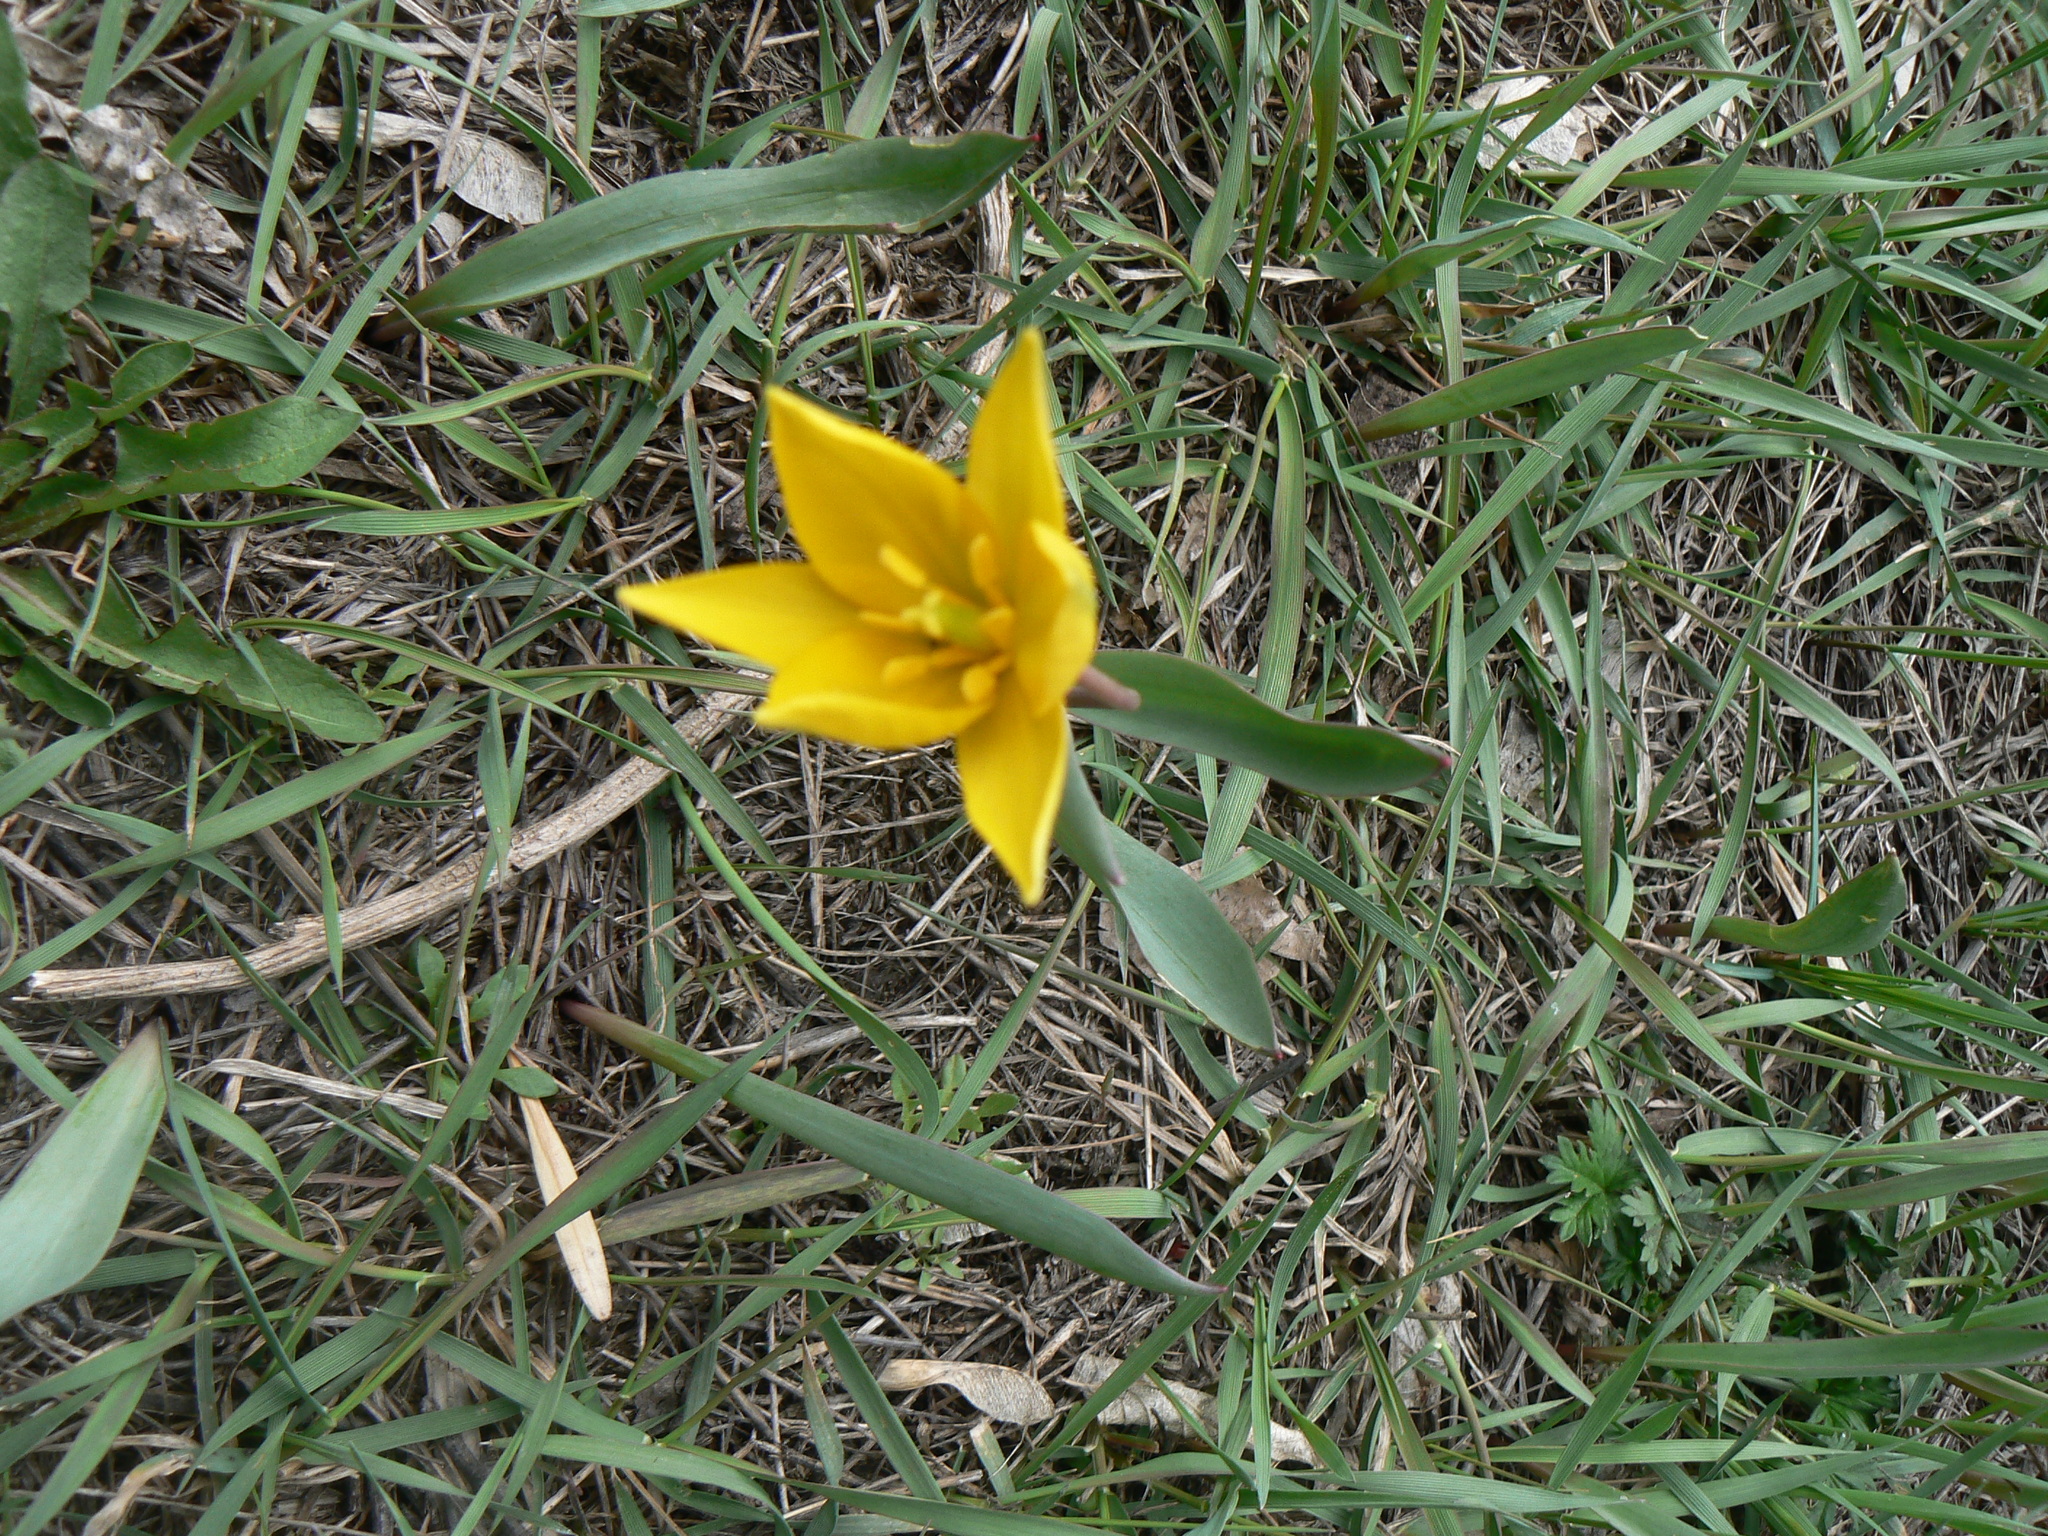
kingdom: Plantae
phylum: Tracheophyta
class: Liliopsida
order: Liliales
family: Liliaceae
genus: Tulipa
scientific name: Tulipa sylvestris
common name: Wild tulip
